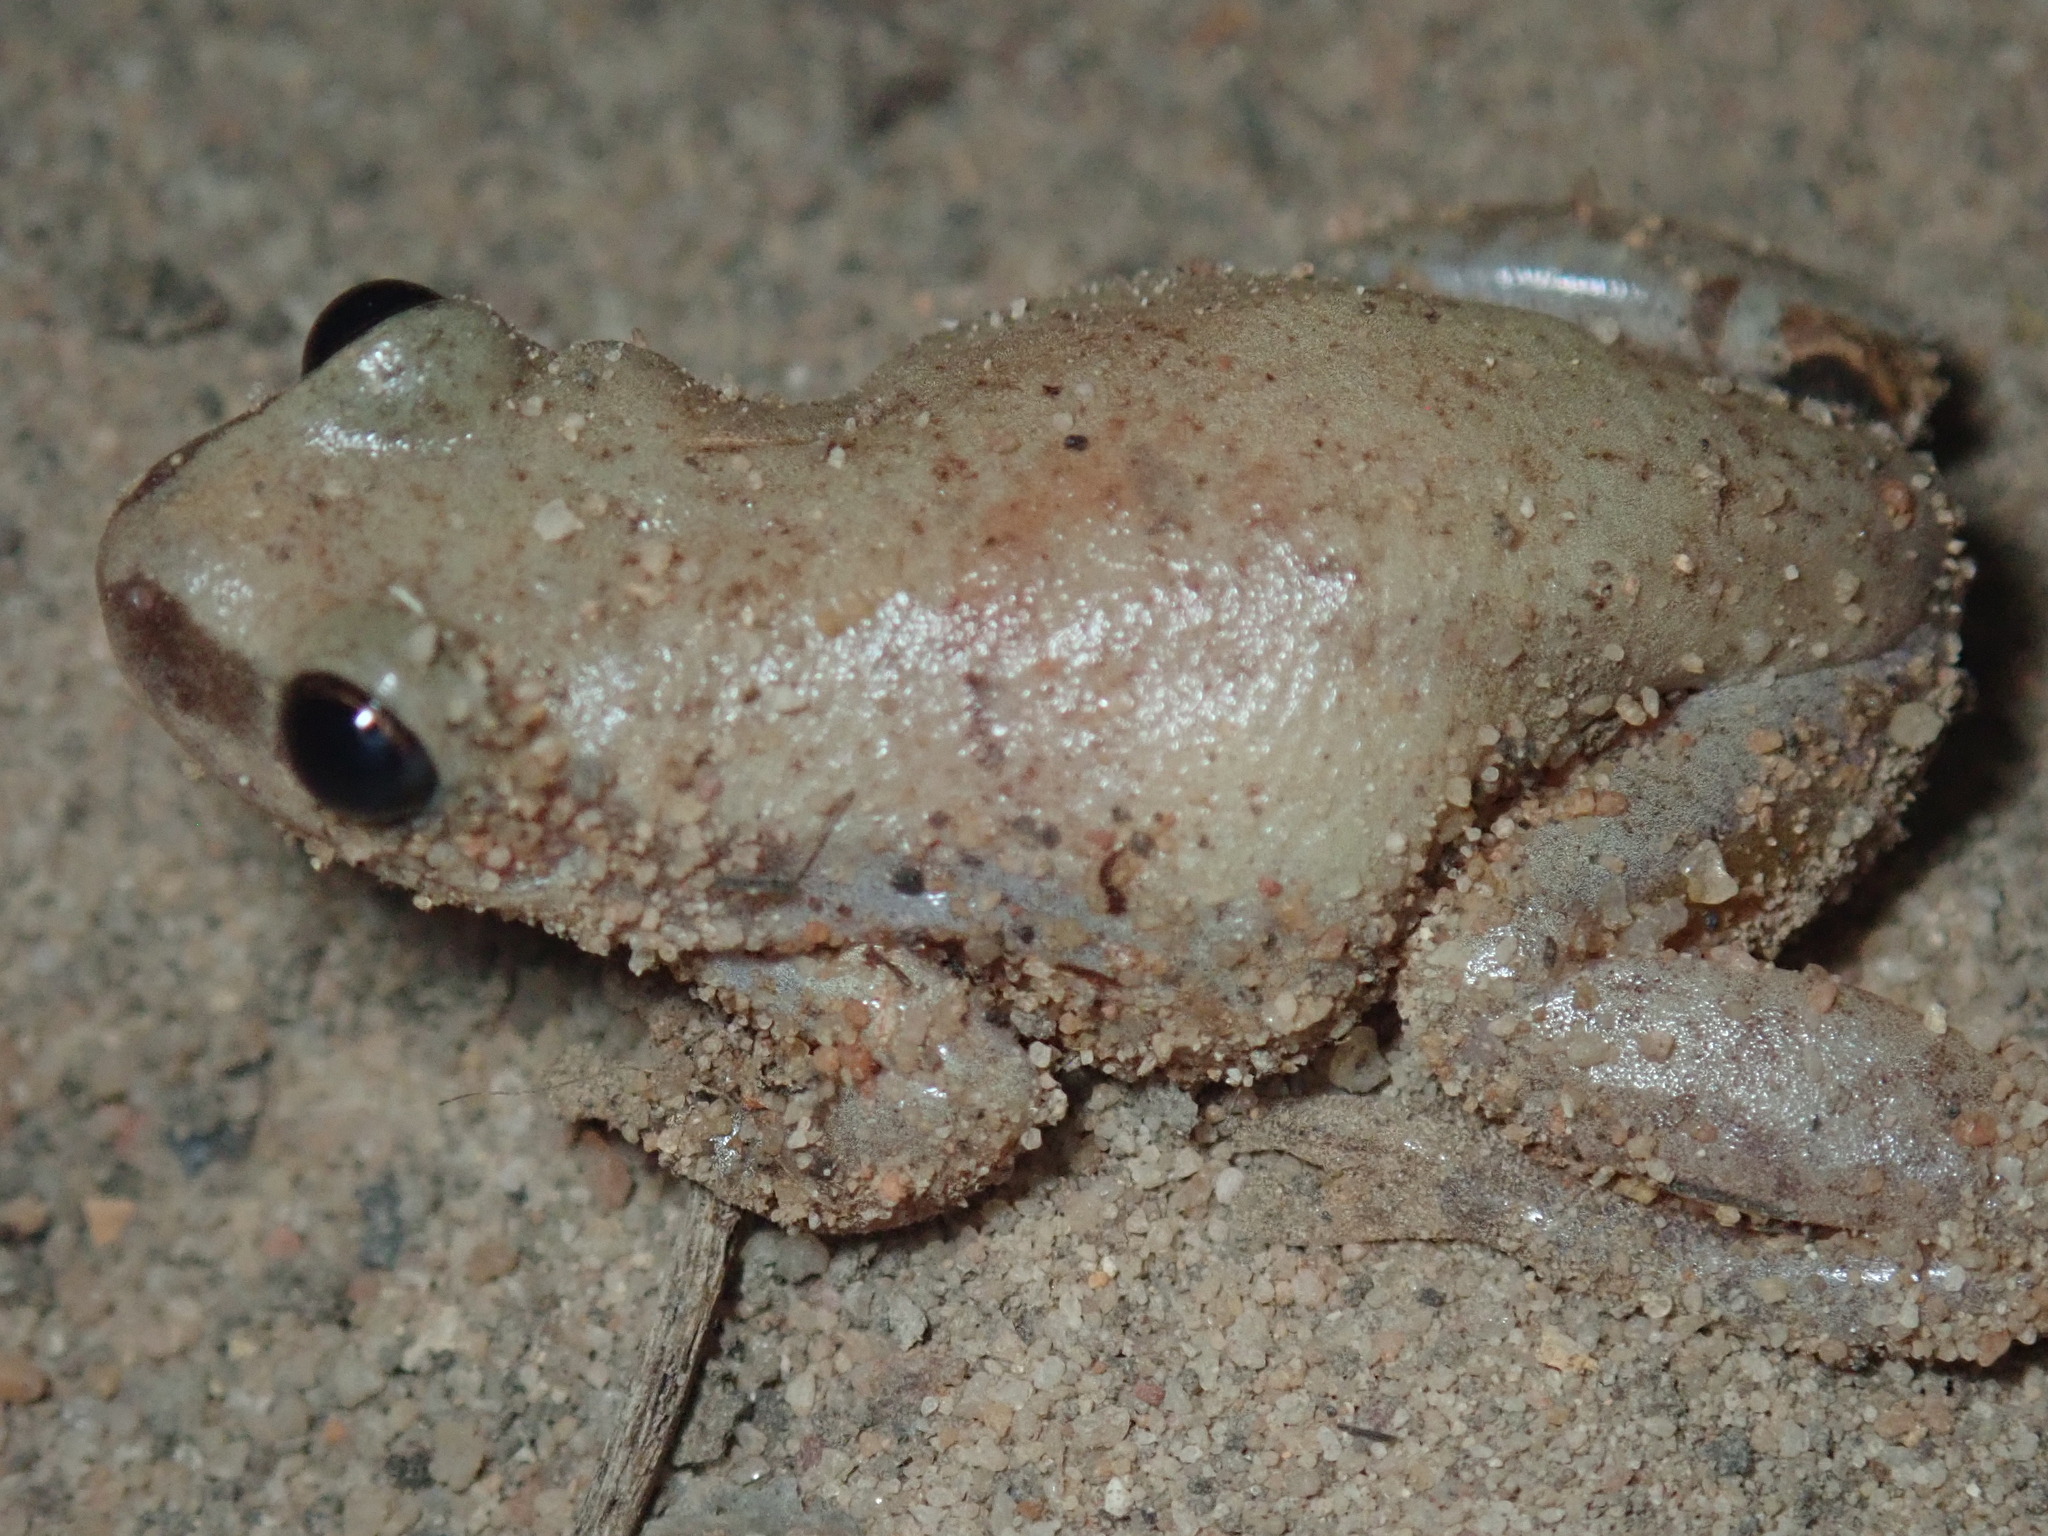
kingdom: Animalia
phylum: Chordata
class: Amphibia
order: Anura
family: Pelodryadidae
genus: Litoria
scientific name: Litoria rubella
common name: Desert tree frog
